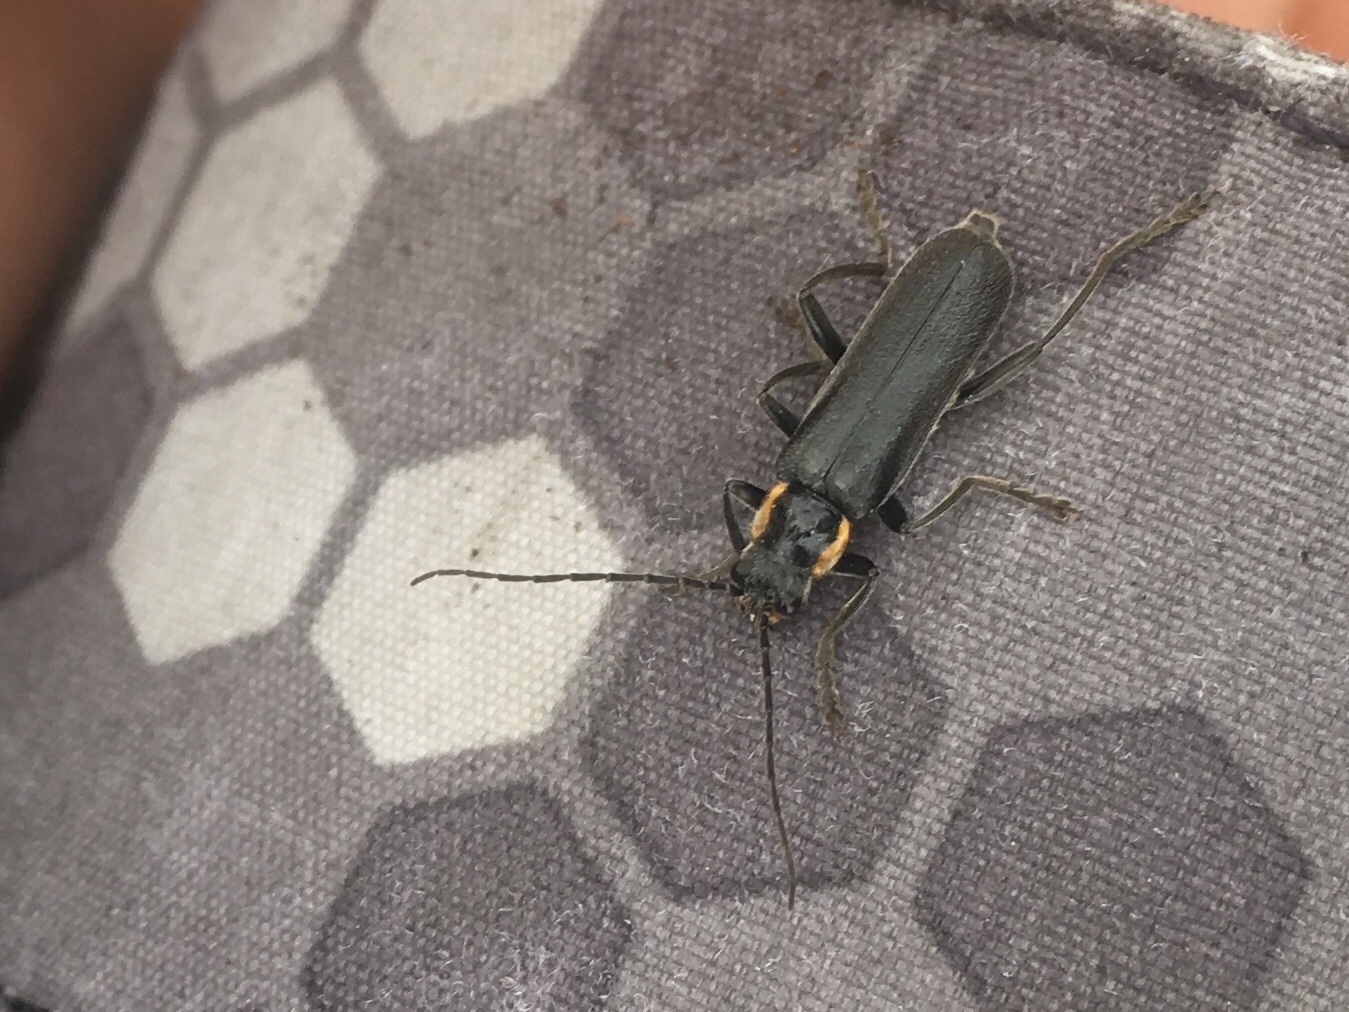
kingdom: Animalia
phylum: Arthropoda
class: Insecta
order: Coleoptera
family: Cantharidae
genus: Cantharis
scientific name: Cantharis obscura
